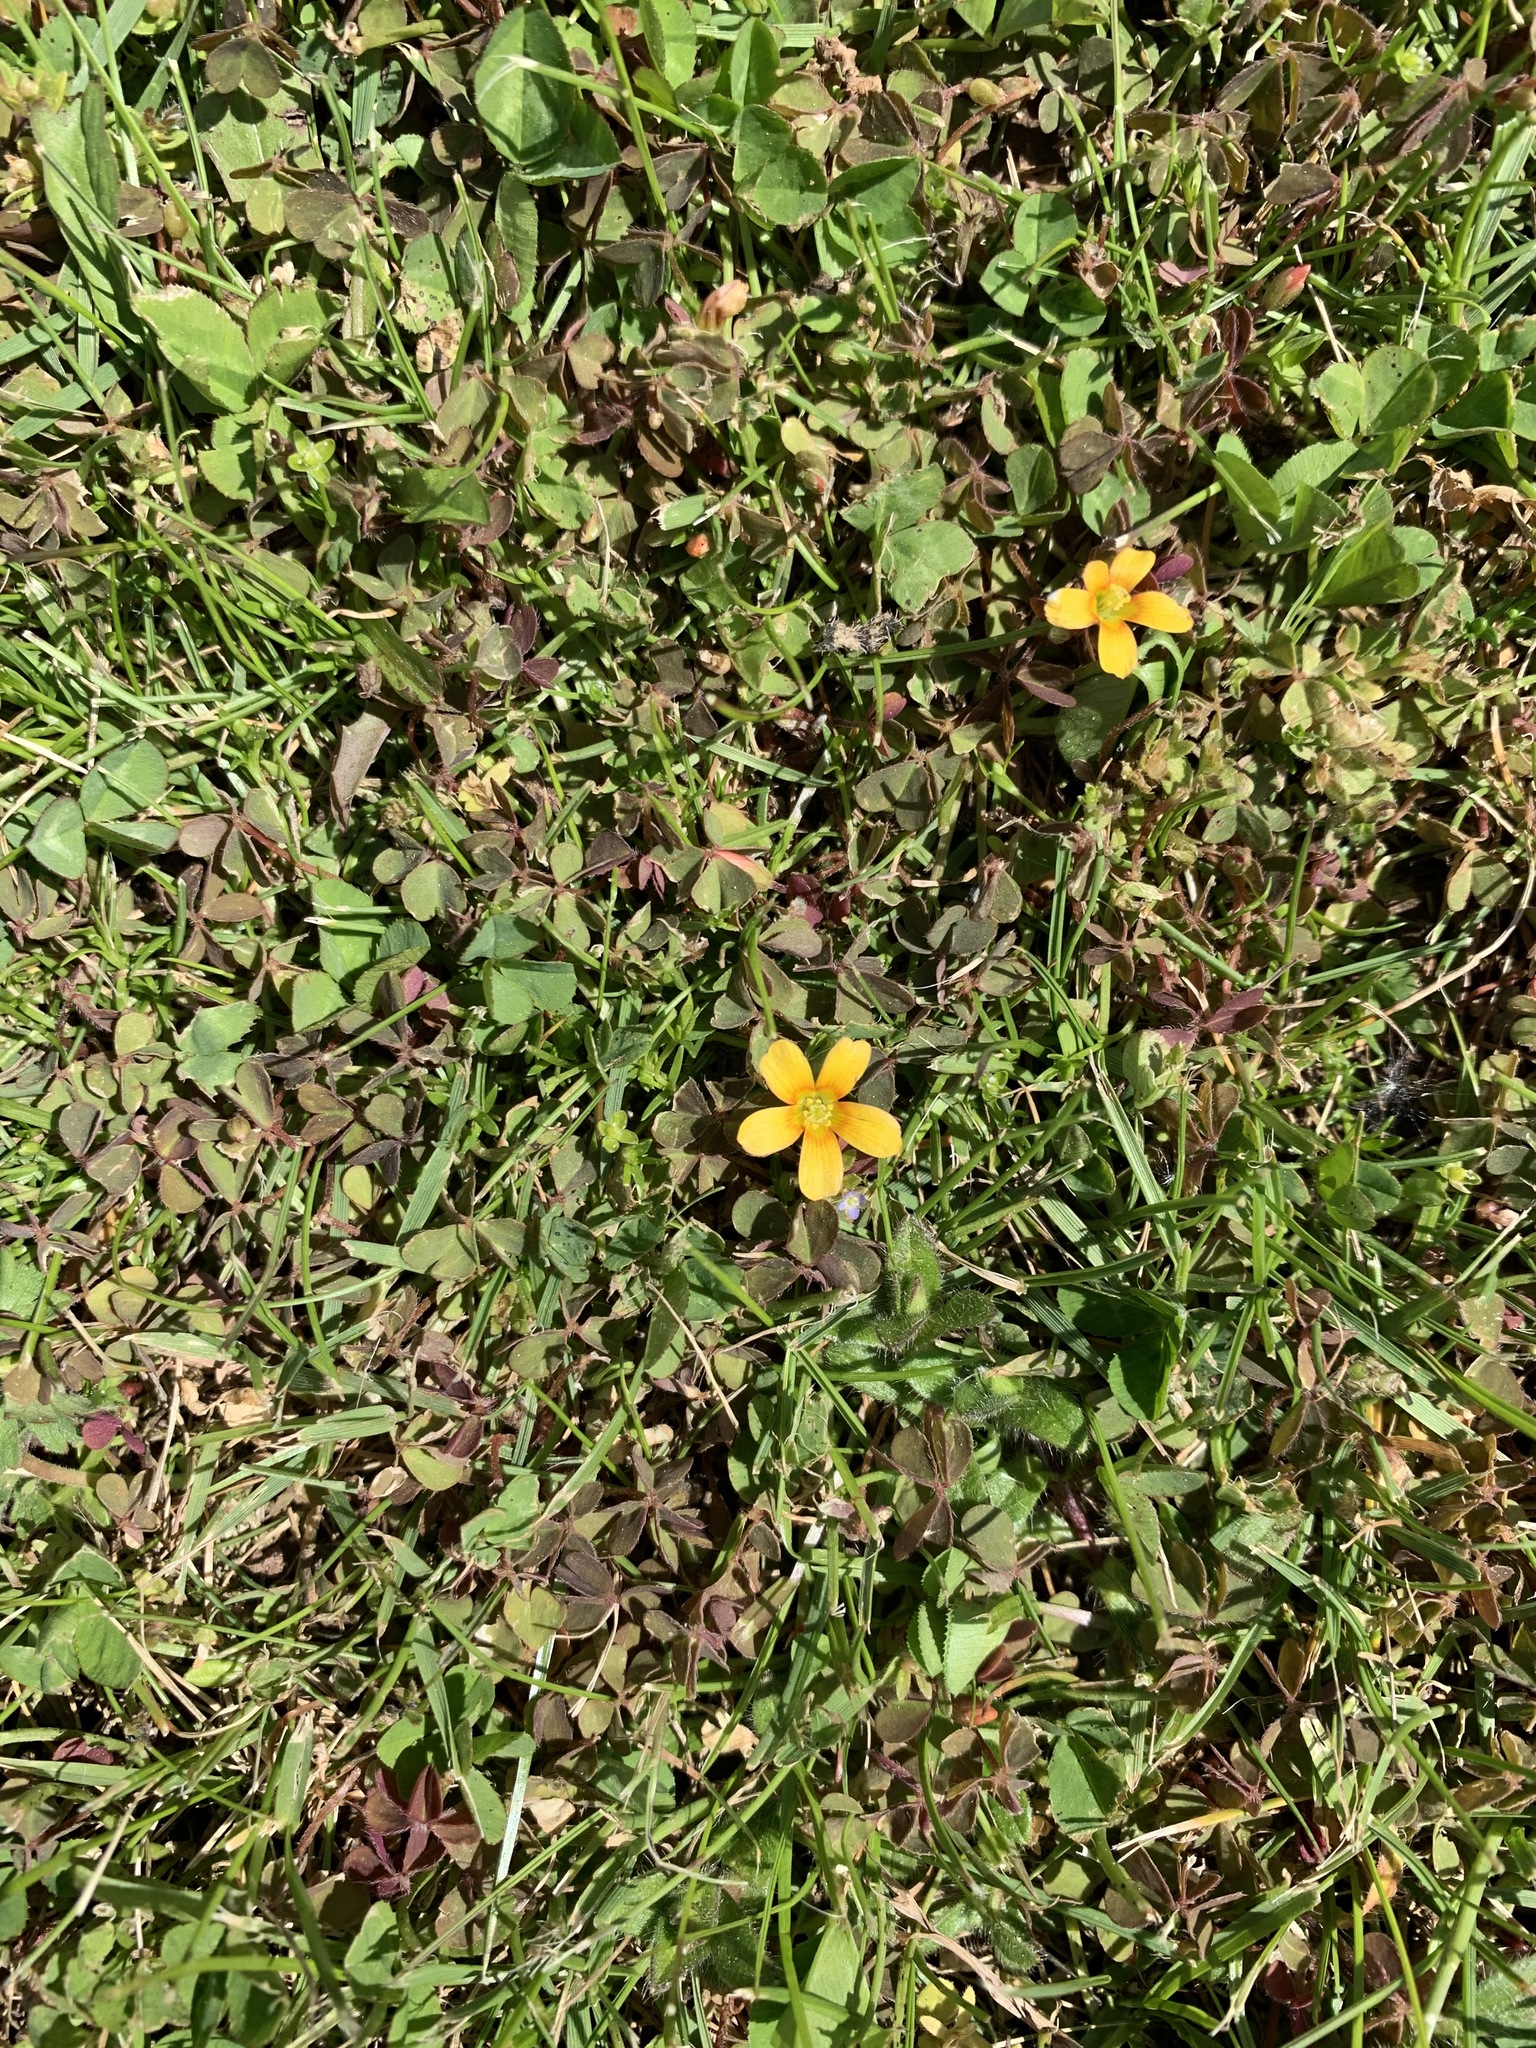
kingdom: Plantae
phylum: Tracheophyta
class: Magnoliopsida
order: Oxalidales
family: Oxalidaceae
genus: Oxalis
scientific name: Oxalis corniculata
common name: Procumbent yellow-sorrel
